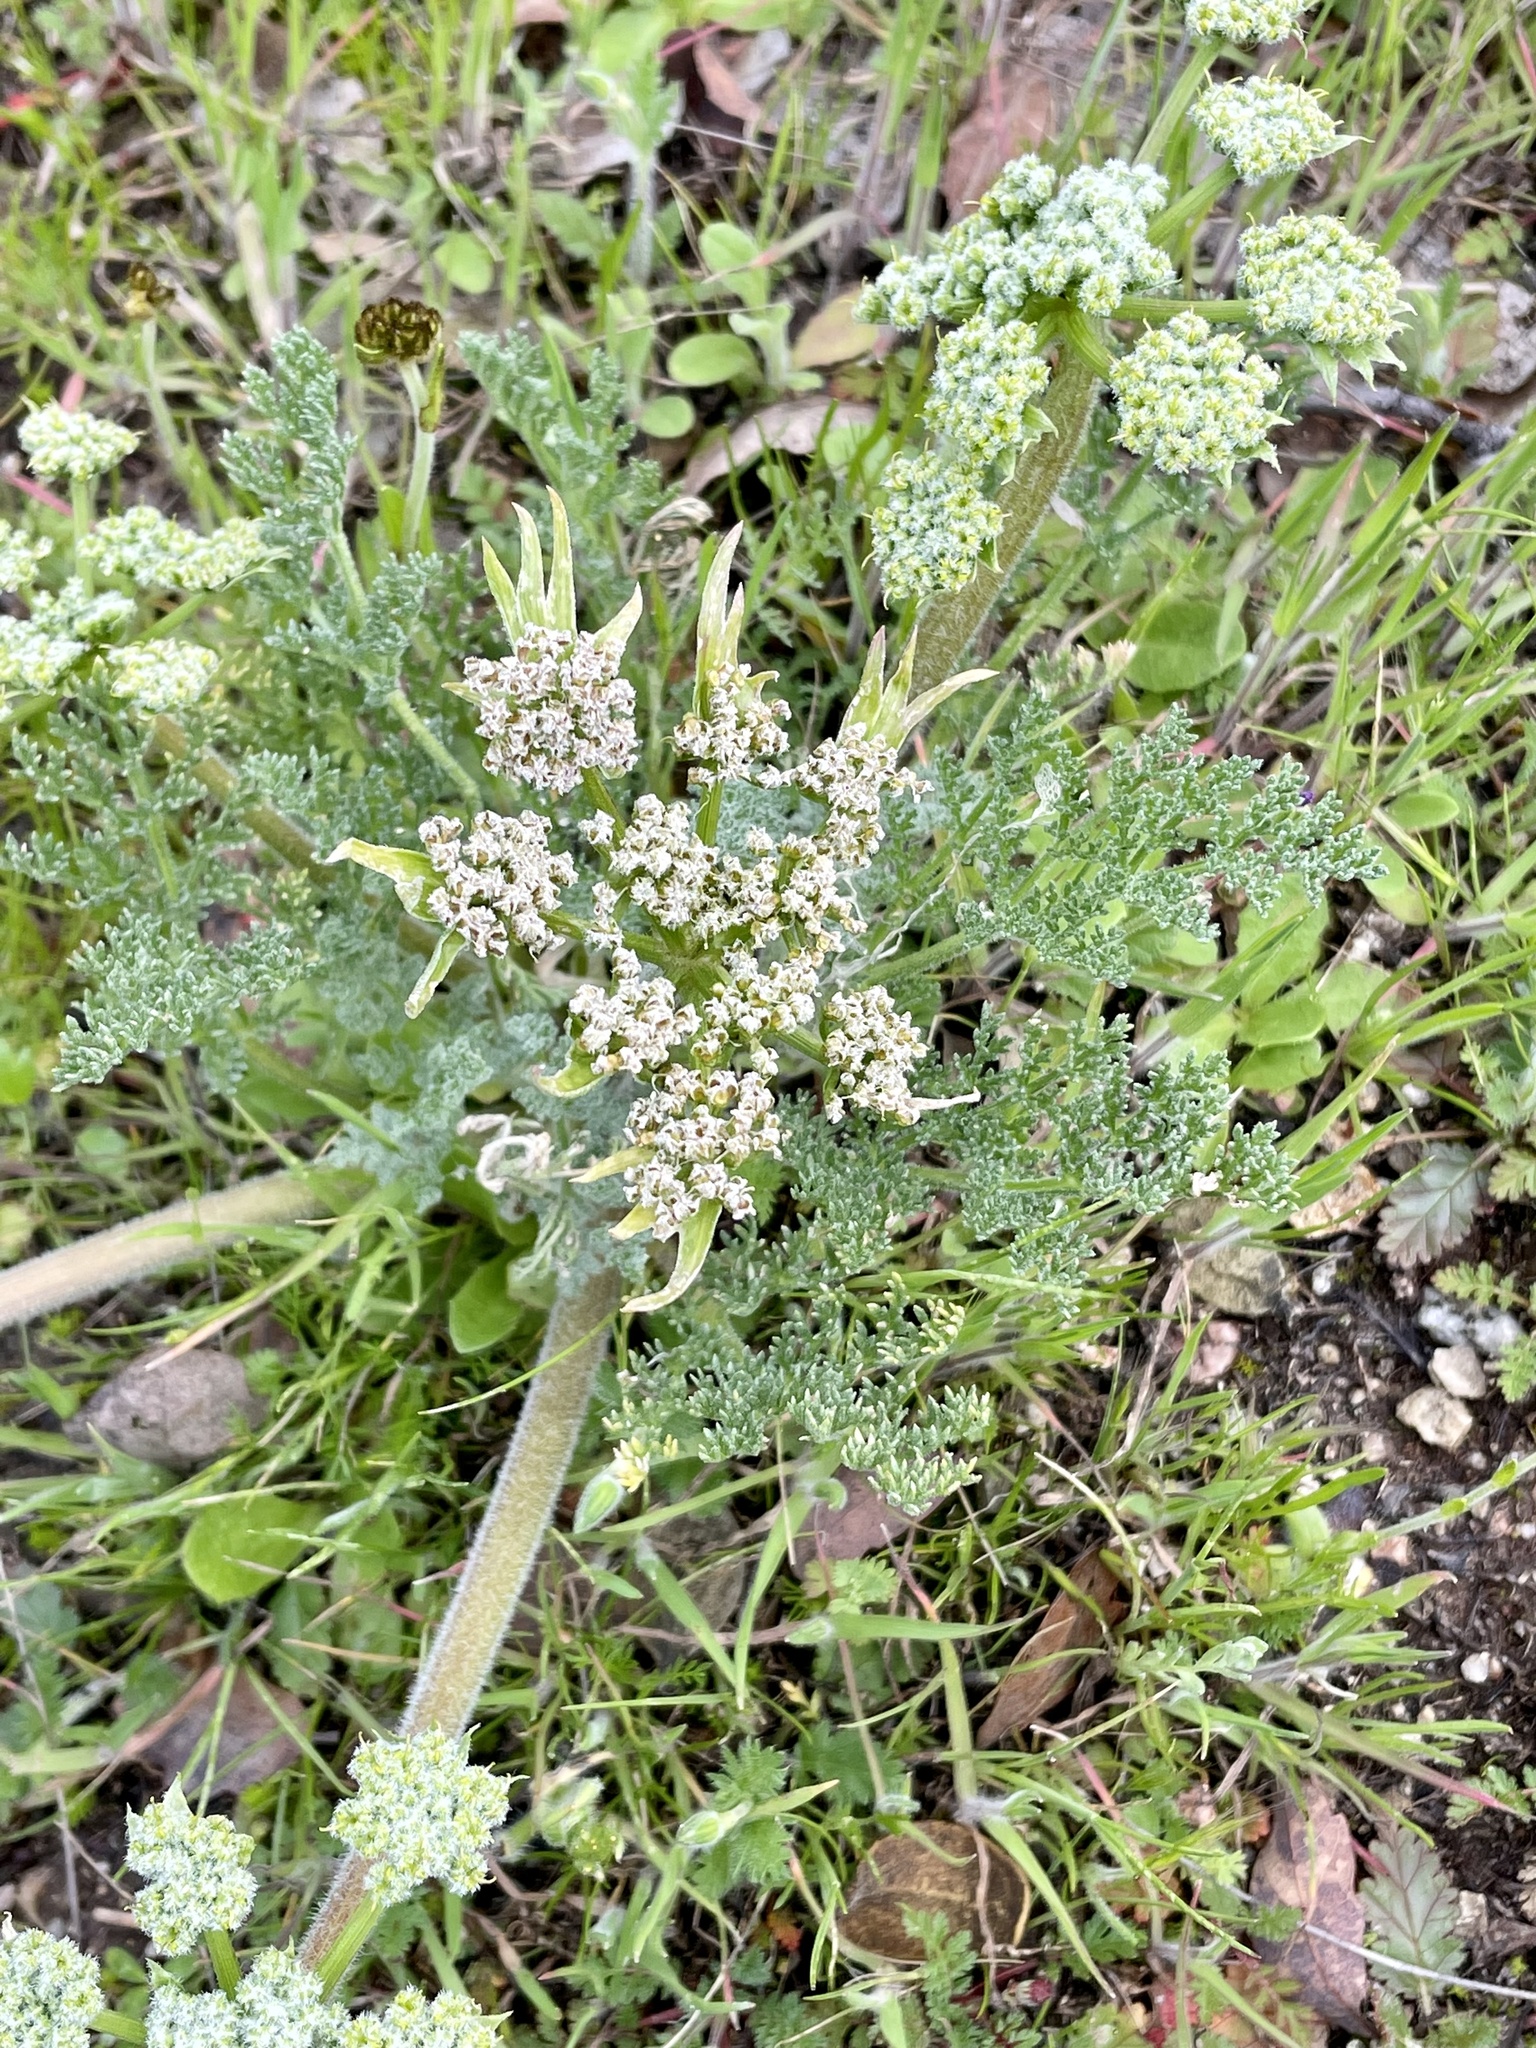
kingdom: Plantae
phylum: Tracheophyta
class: Magnoliopsida
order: Apiales
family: Apiaceae
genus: Lomatium
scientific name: Lomatium dasycarpum
